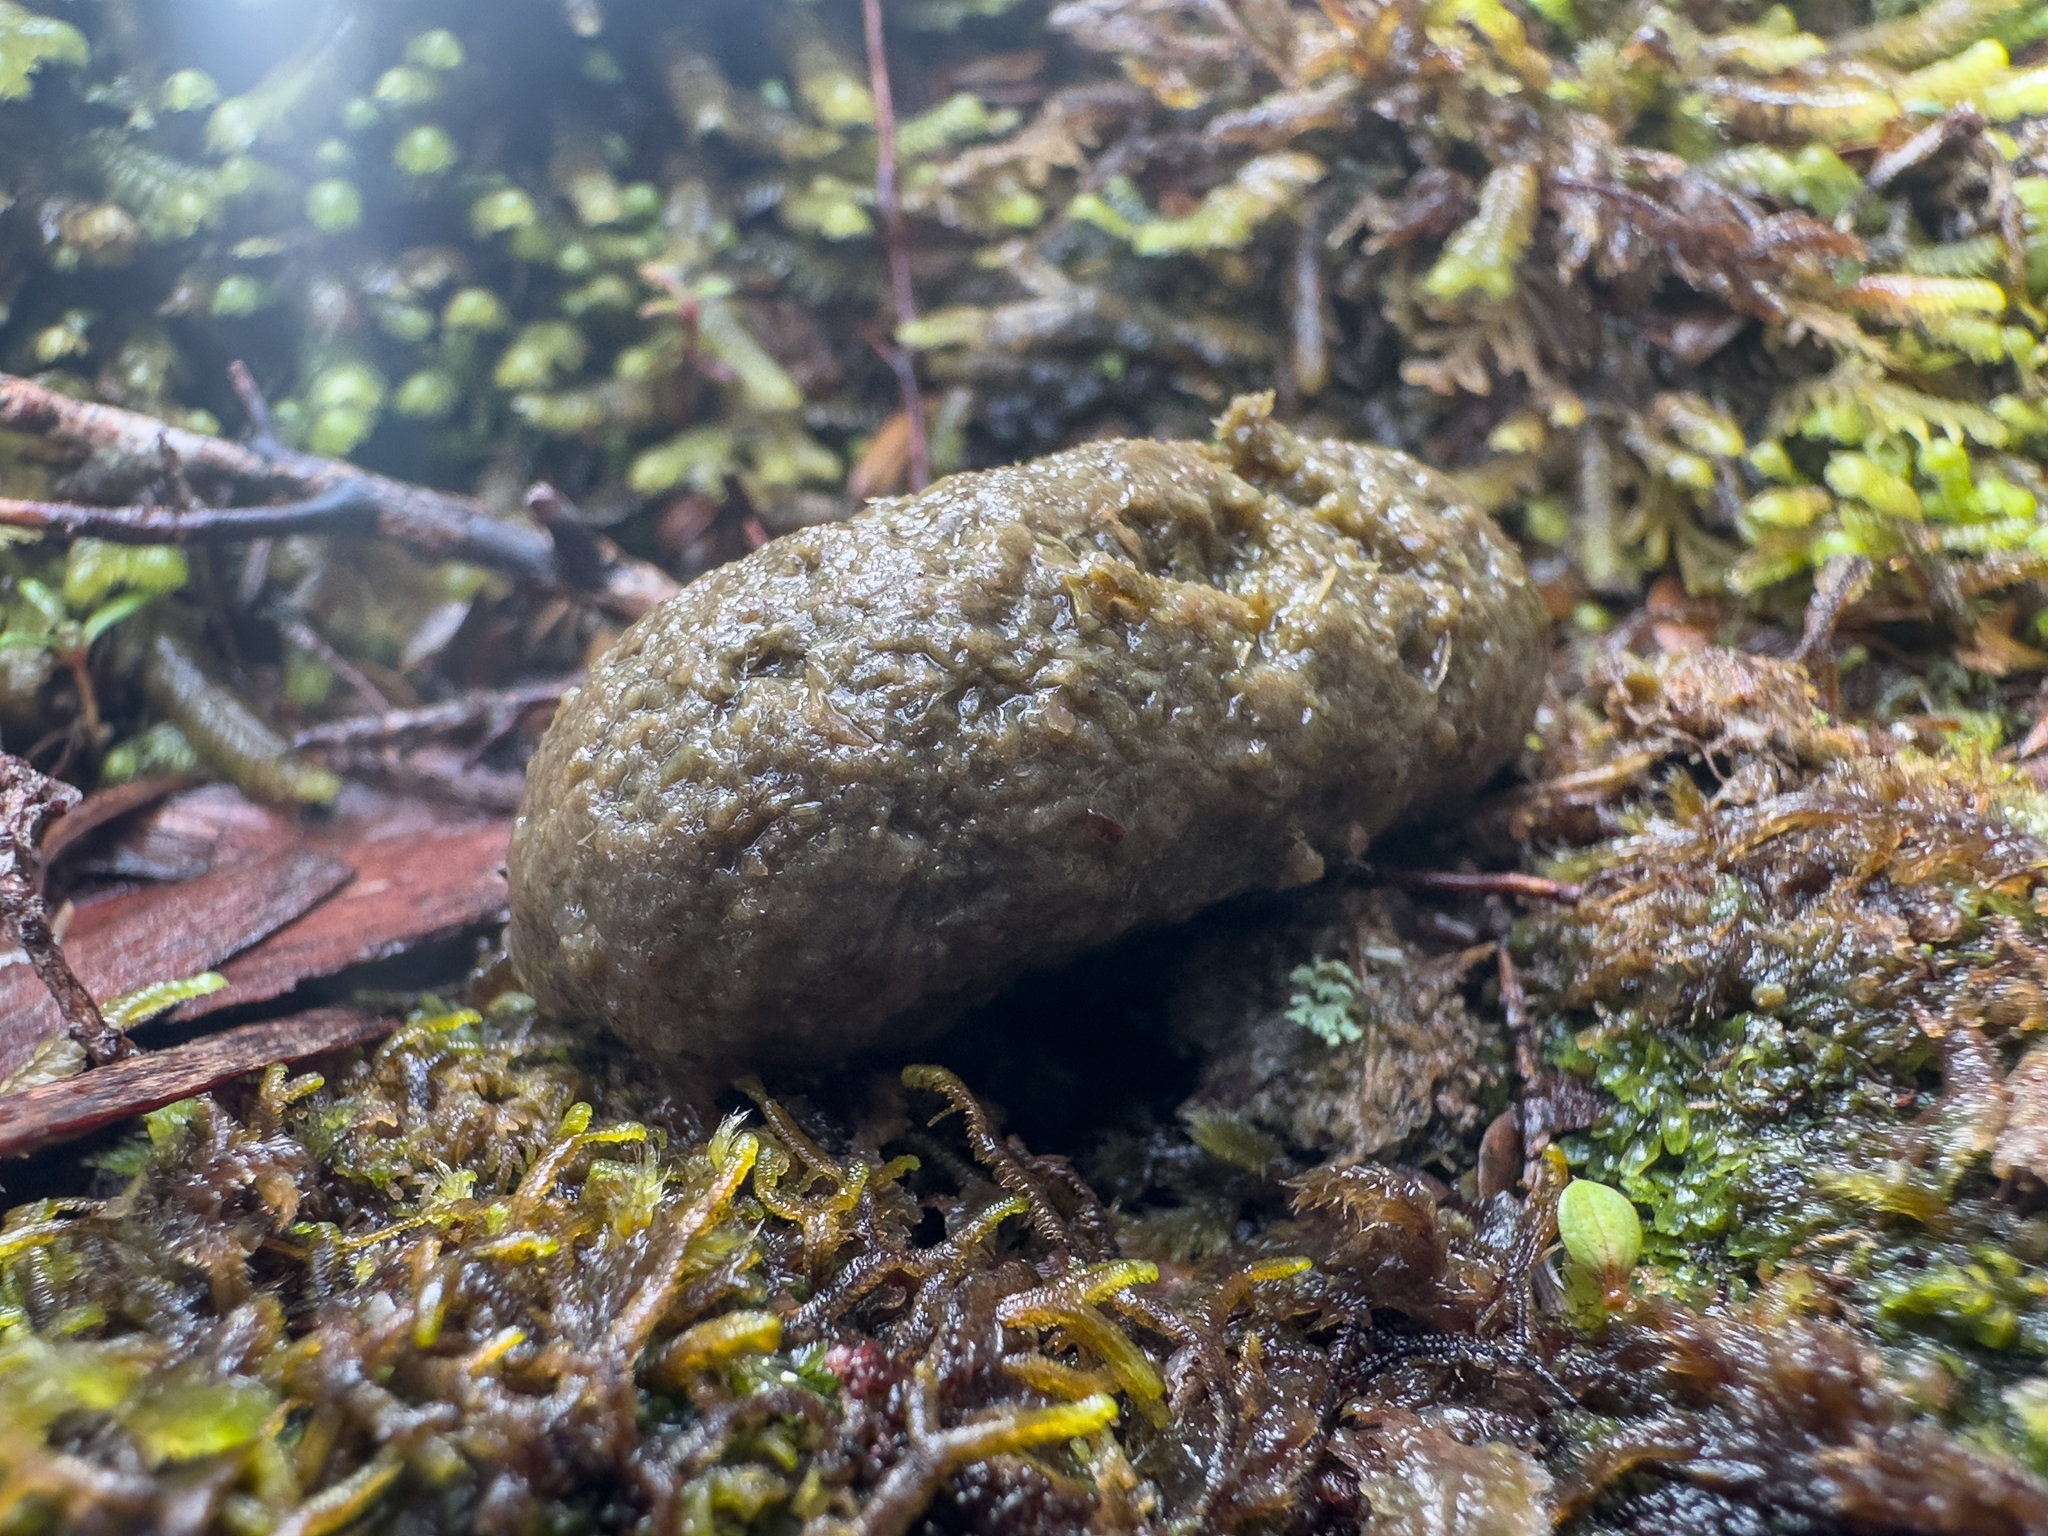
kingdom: Animalia
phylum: Chordata
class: Mammalia
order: Diprotodontia
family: Phalangeridae
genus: Trichosurus
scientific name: Trichosurus vulpecula
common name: Common brushtail
